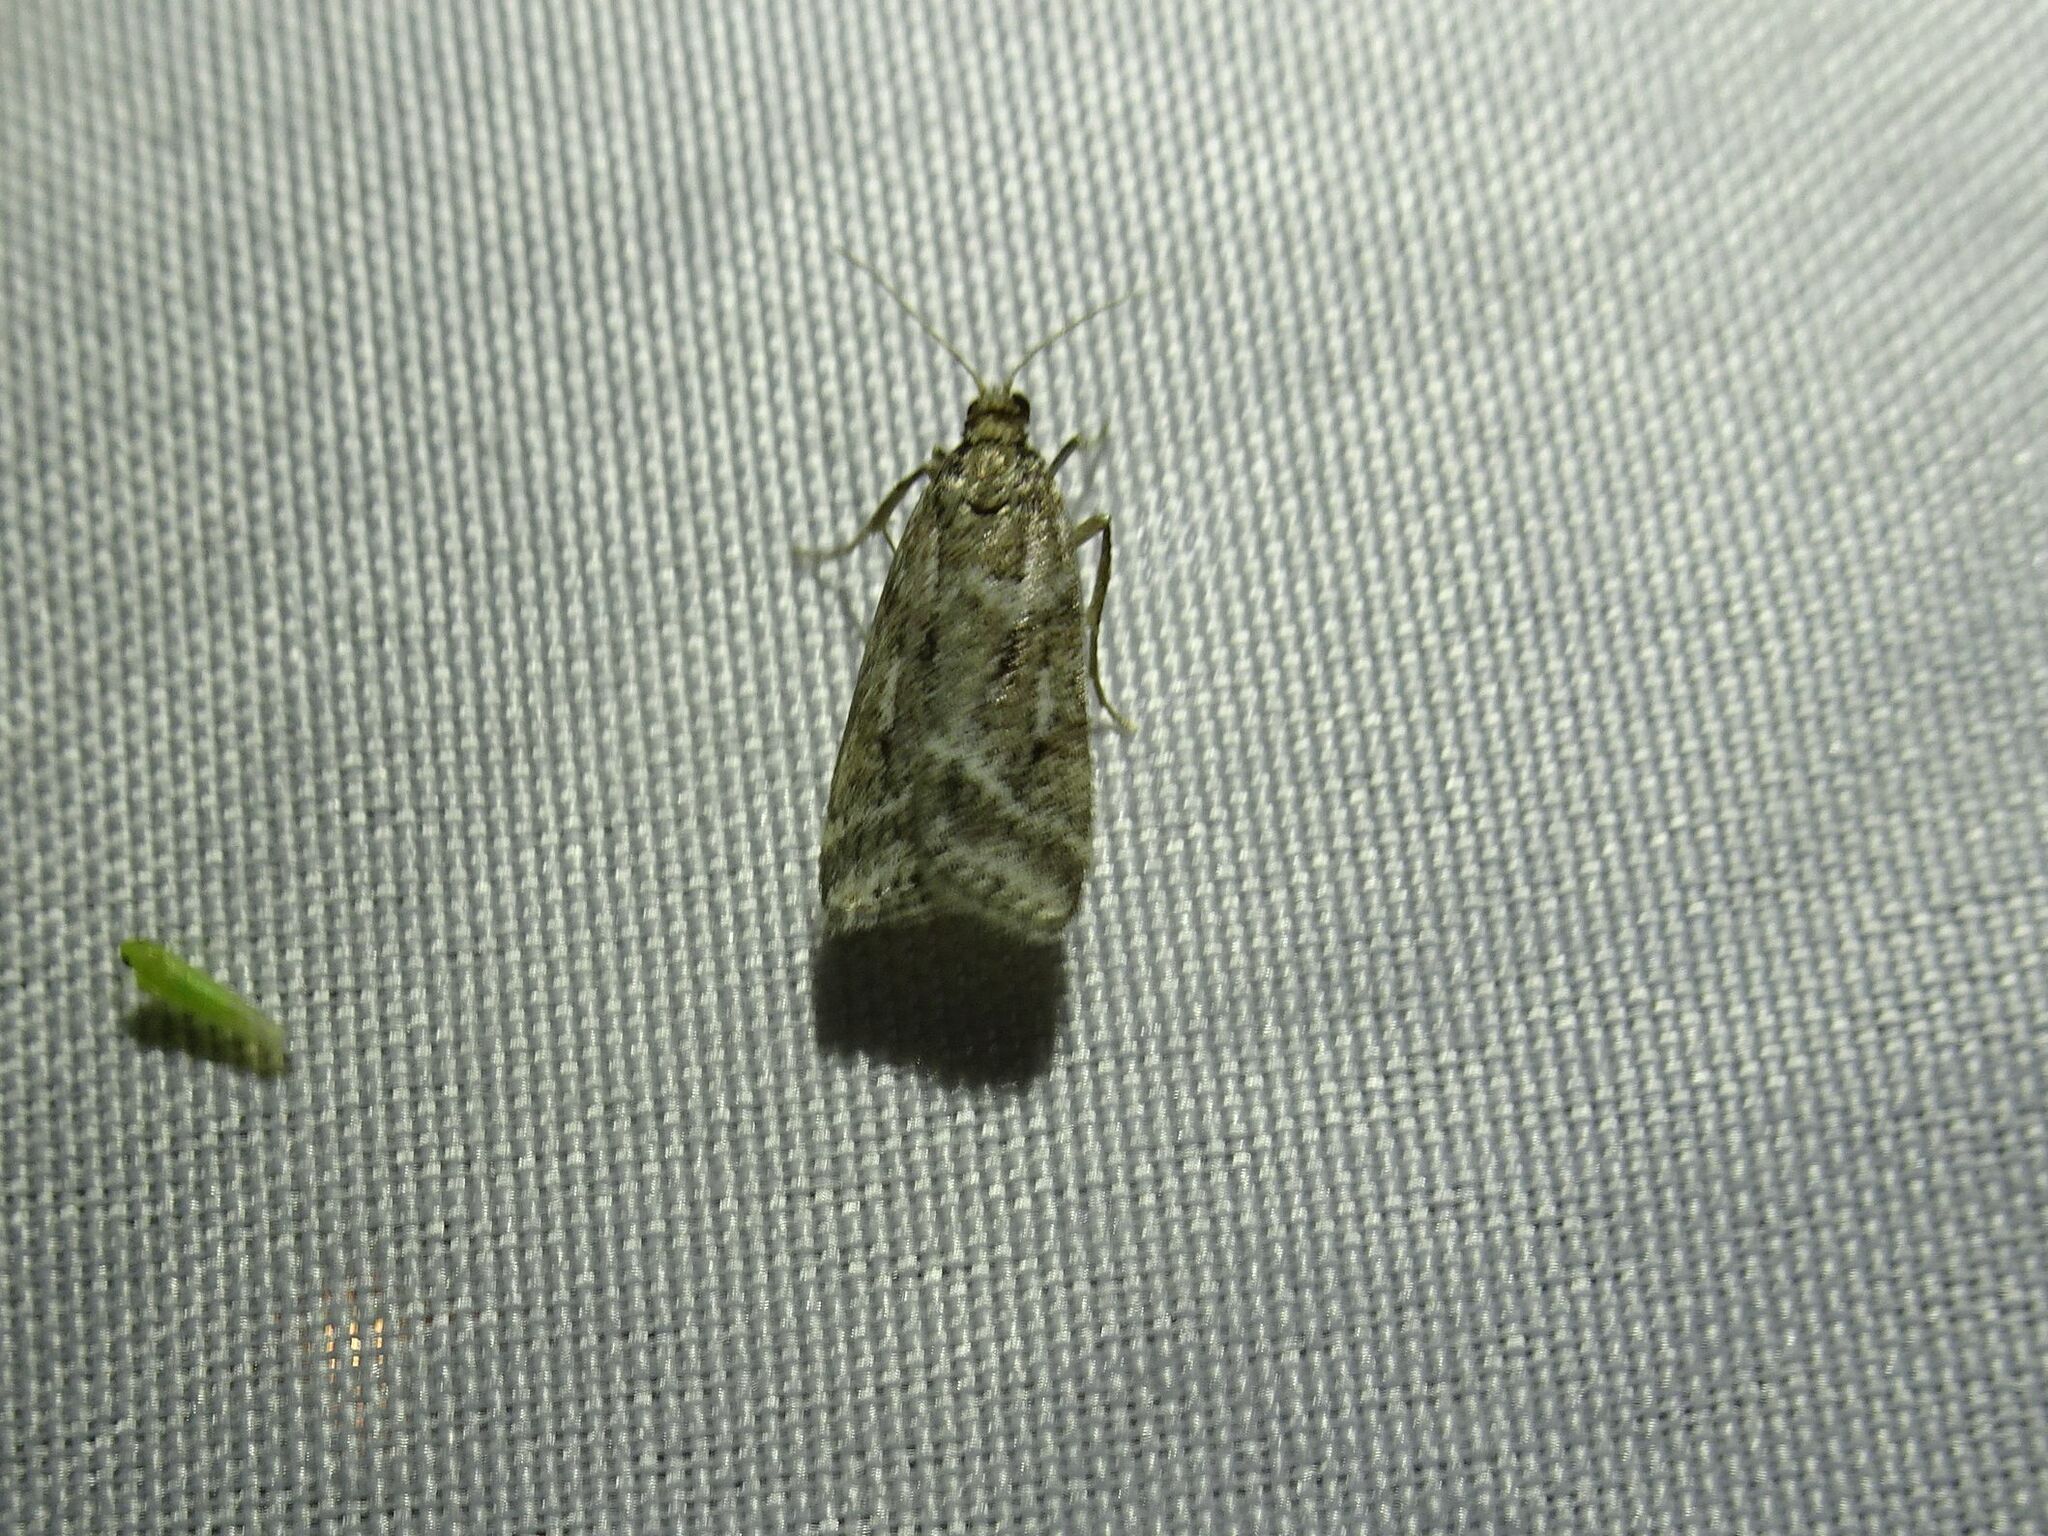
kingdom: Animalia
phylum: Arthropoda
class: Insecta
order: Lepidoptera
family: Crambidae
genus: Eudonia
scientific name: Eudonia truncicolella
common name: Ground-moss grey
